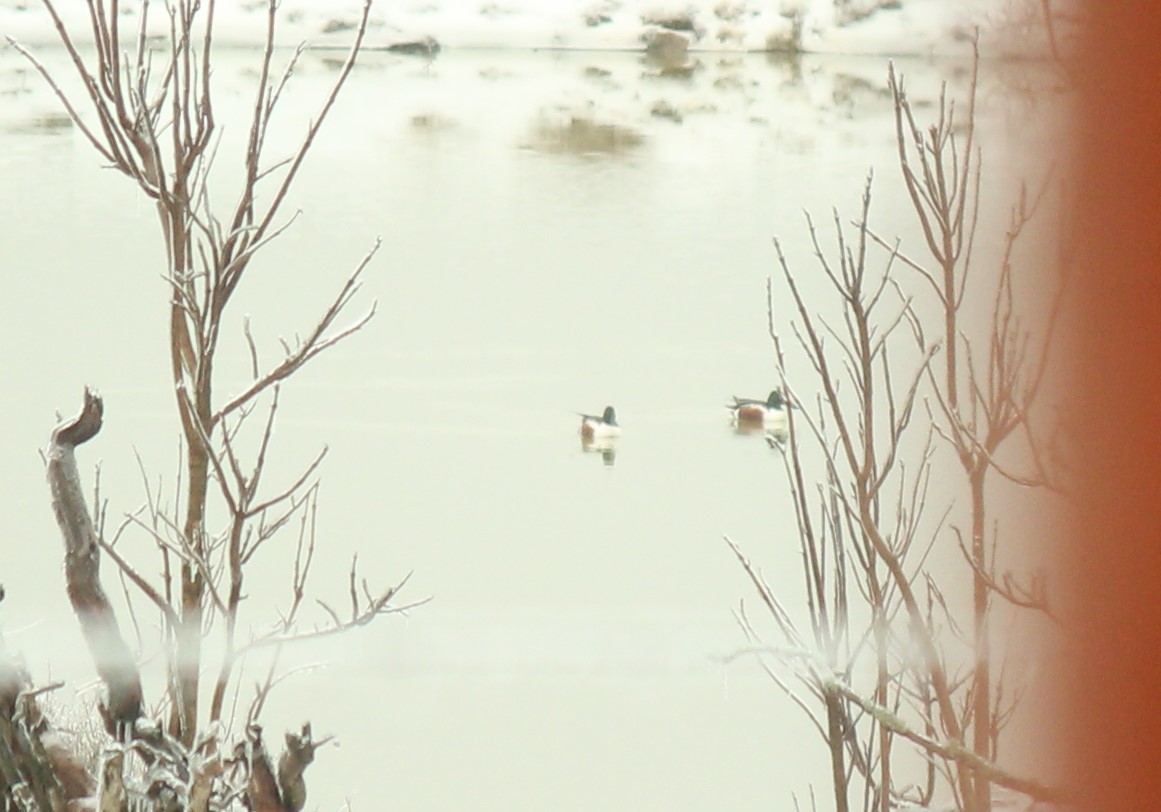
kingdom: Animalia
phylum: Chordata
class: Aves
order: Anseriformes
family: Anatidae
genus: Spatula
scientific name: Spatula clypeata
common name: Northern shoveler
